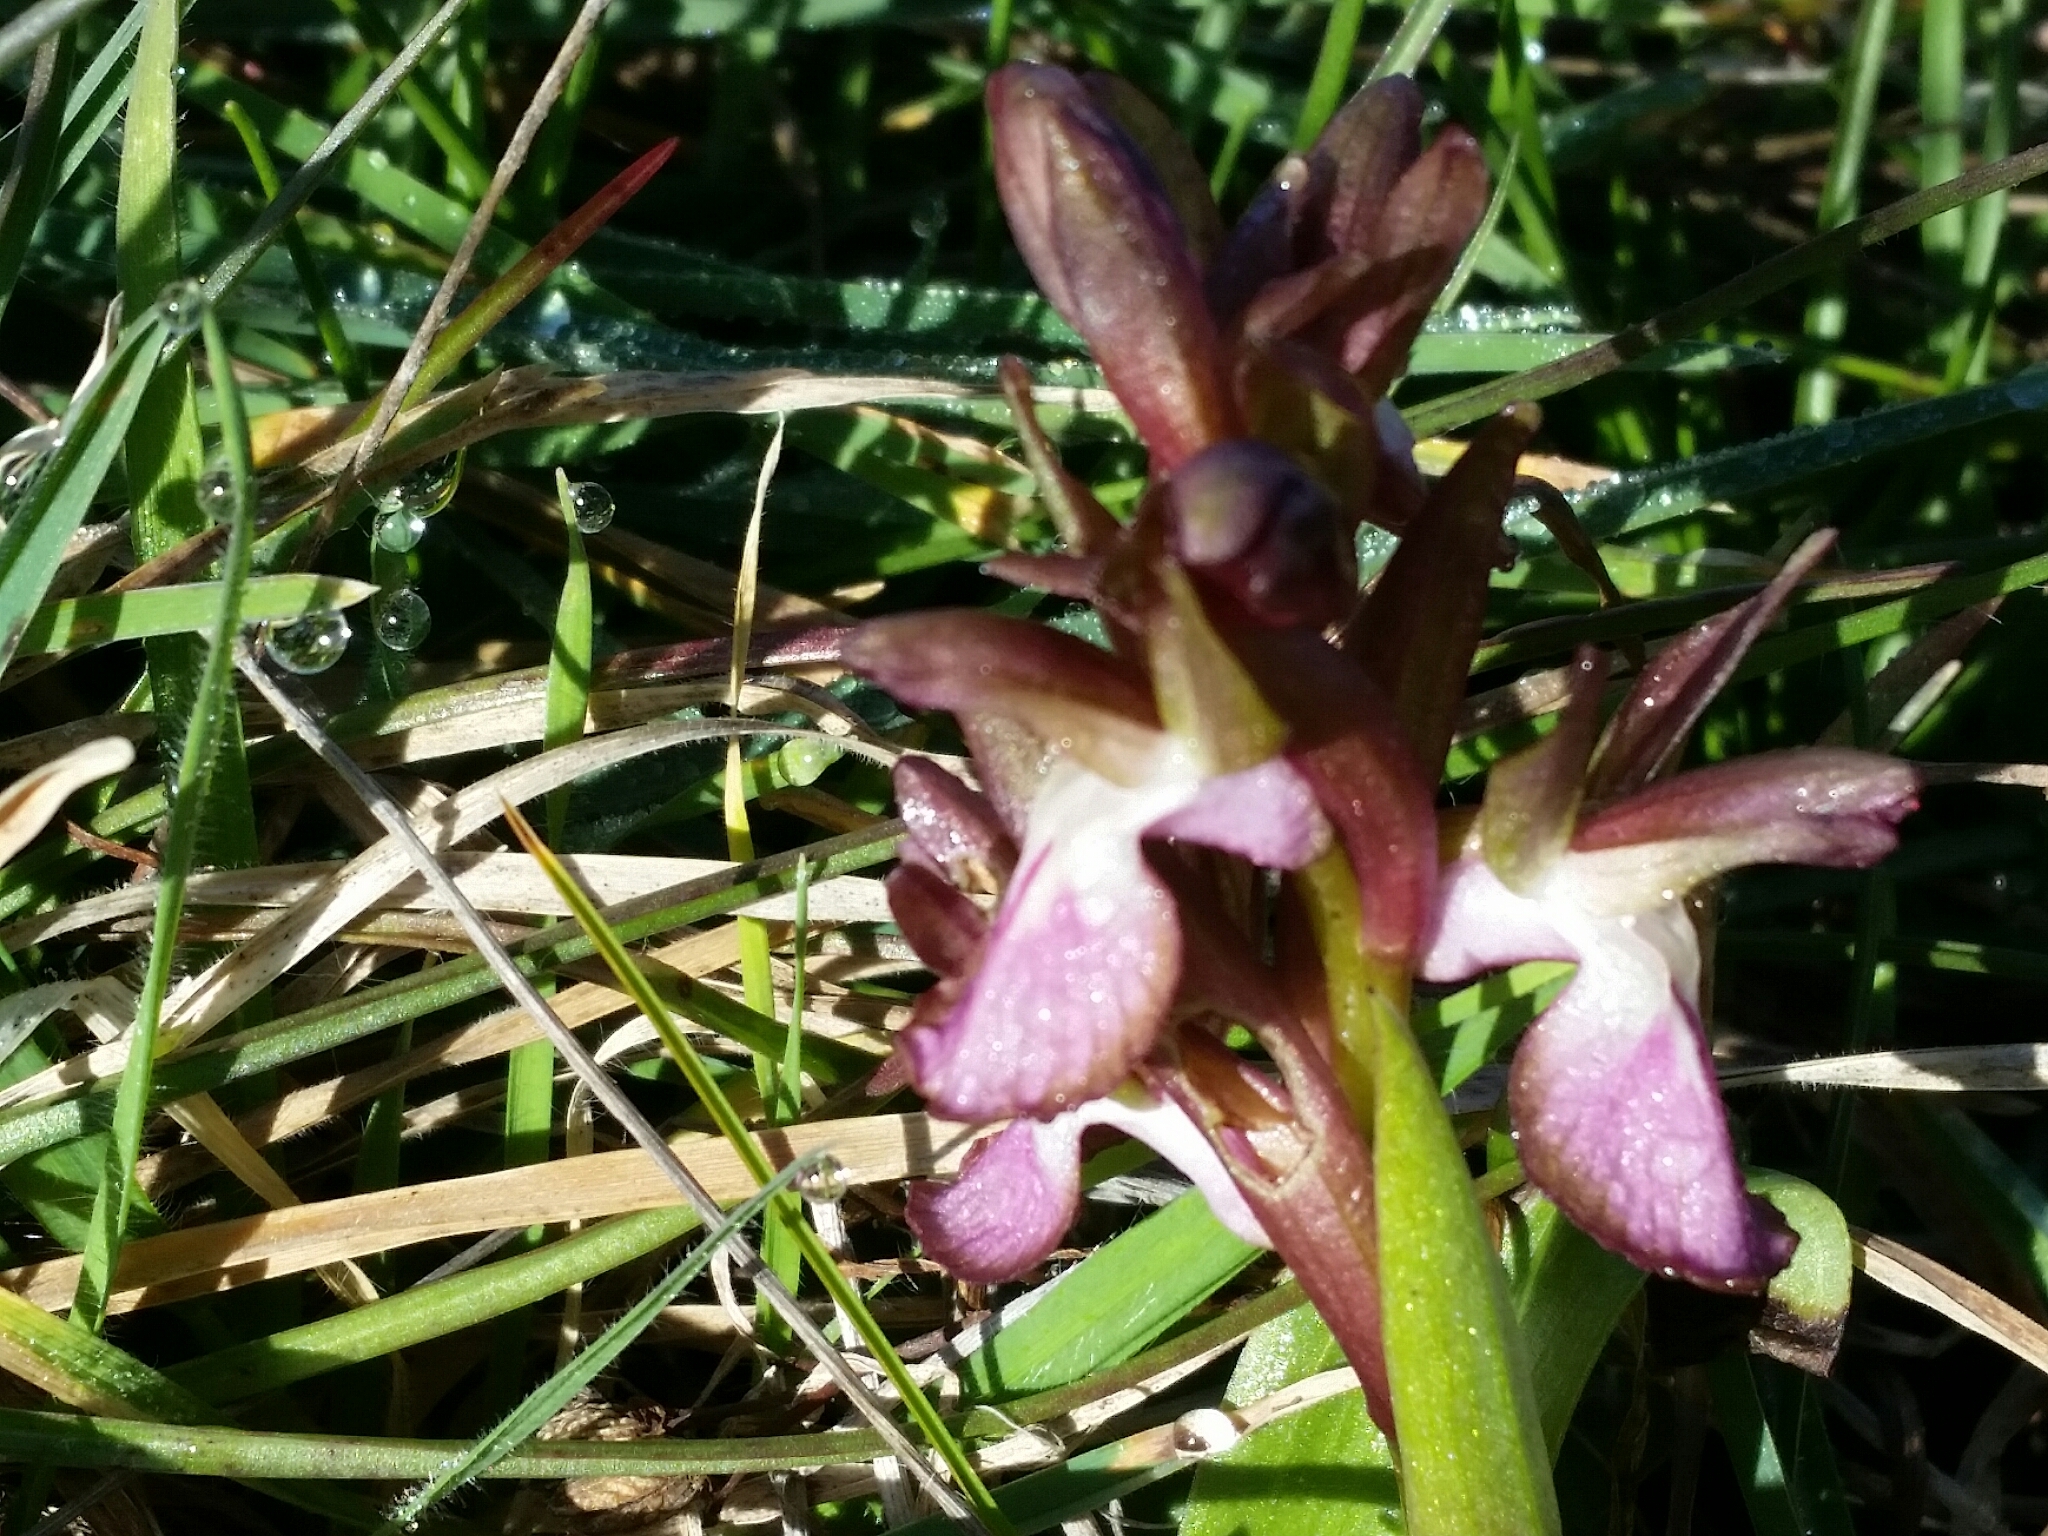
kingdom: Plantae
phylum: Tracheophyta
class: Liliopsida
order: Asparagales
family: Orchidaceae
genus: Anacamptis
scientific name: Anacamptis collina
